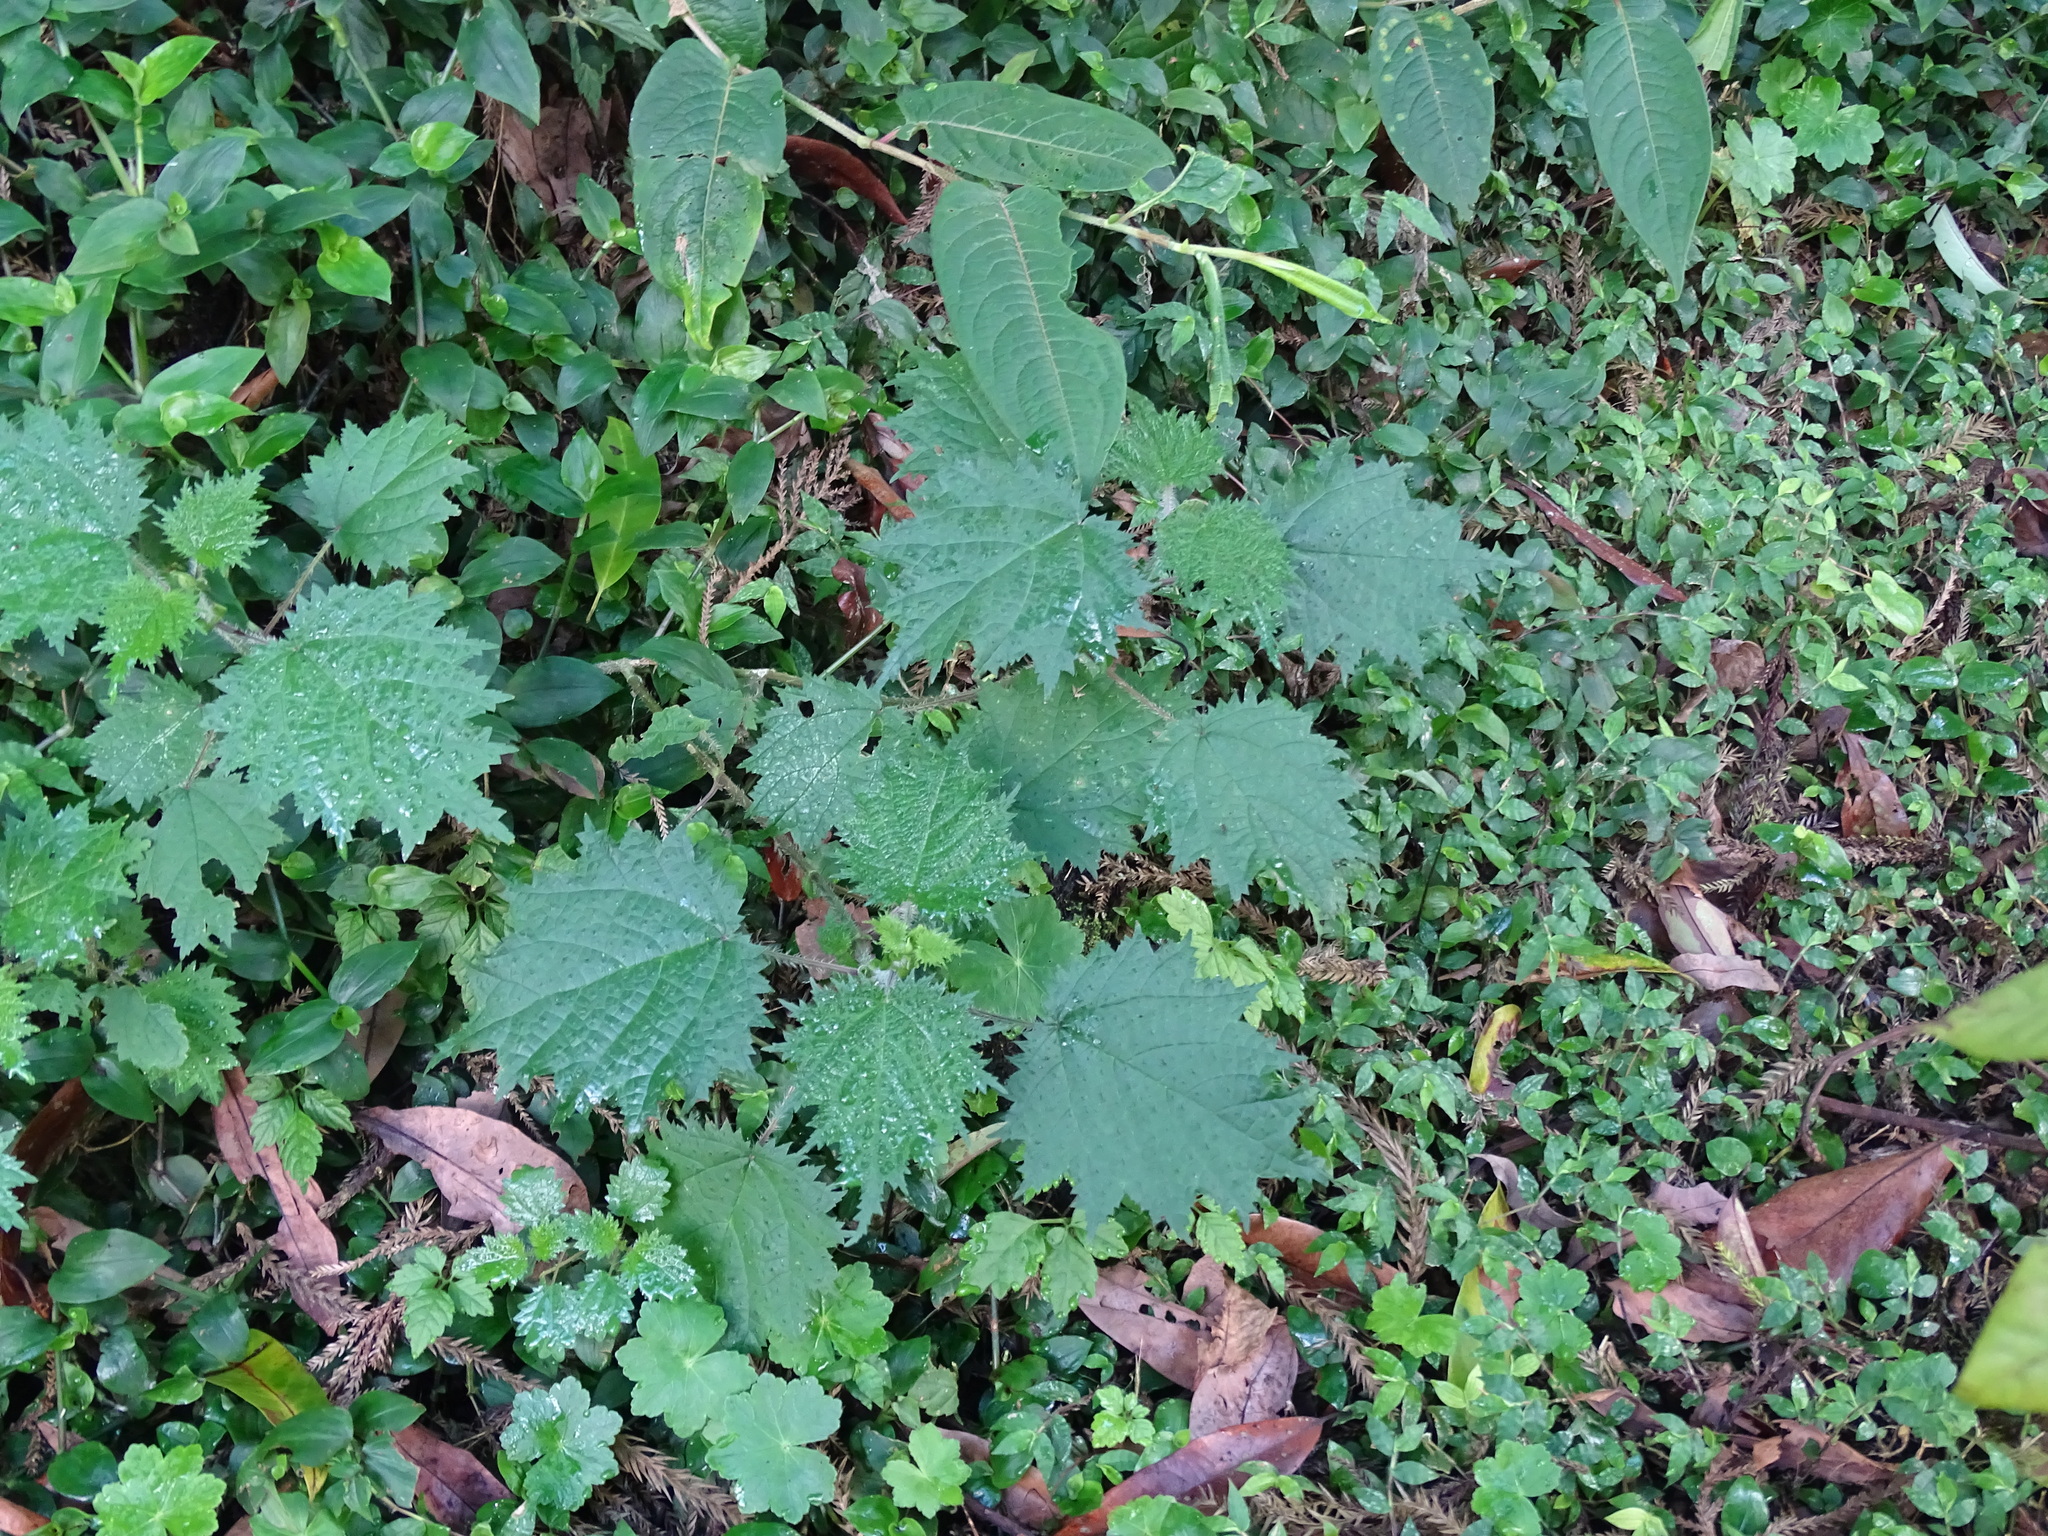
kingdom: Plantae
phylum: Tracheophyta
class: Magnoliopsida
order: Rosales
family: Urticaceae
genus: Urtica
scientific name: Urtica thunbergiana
